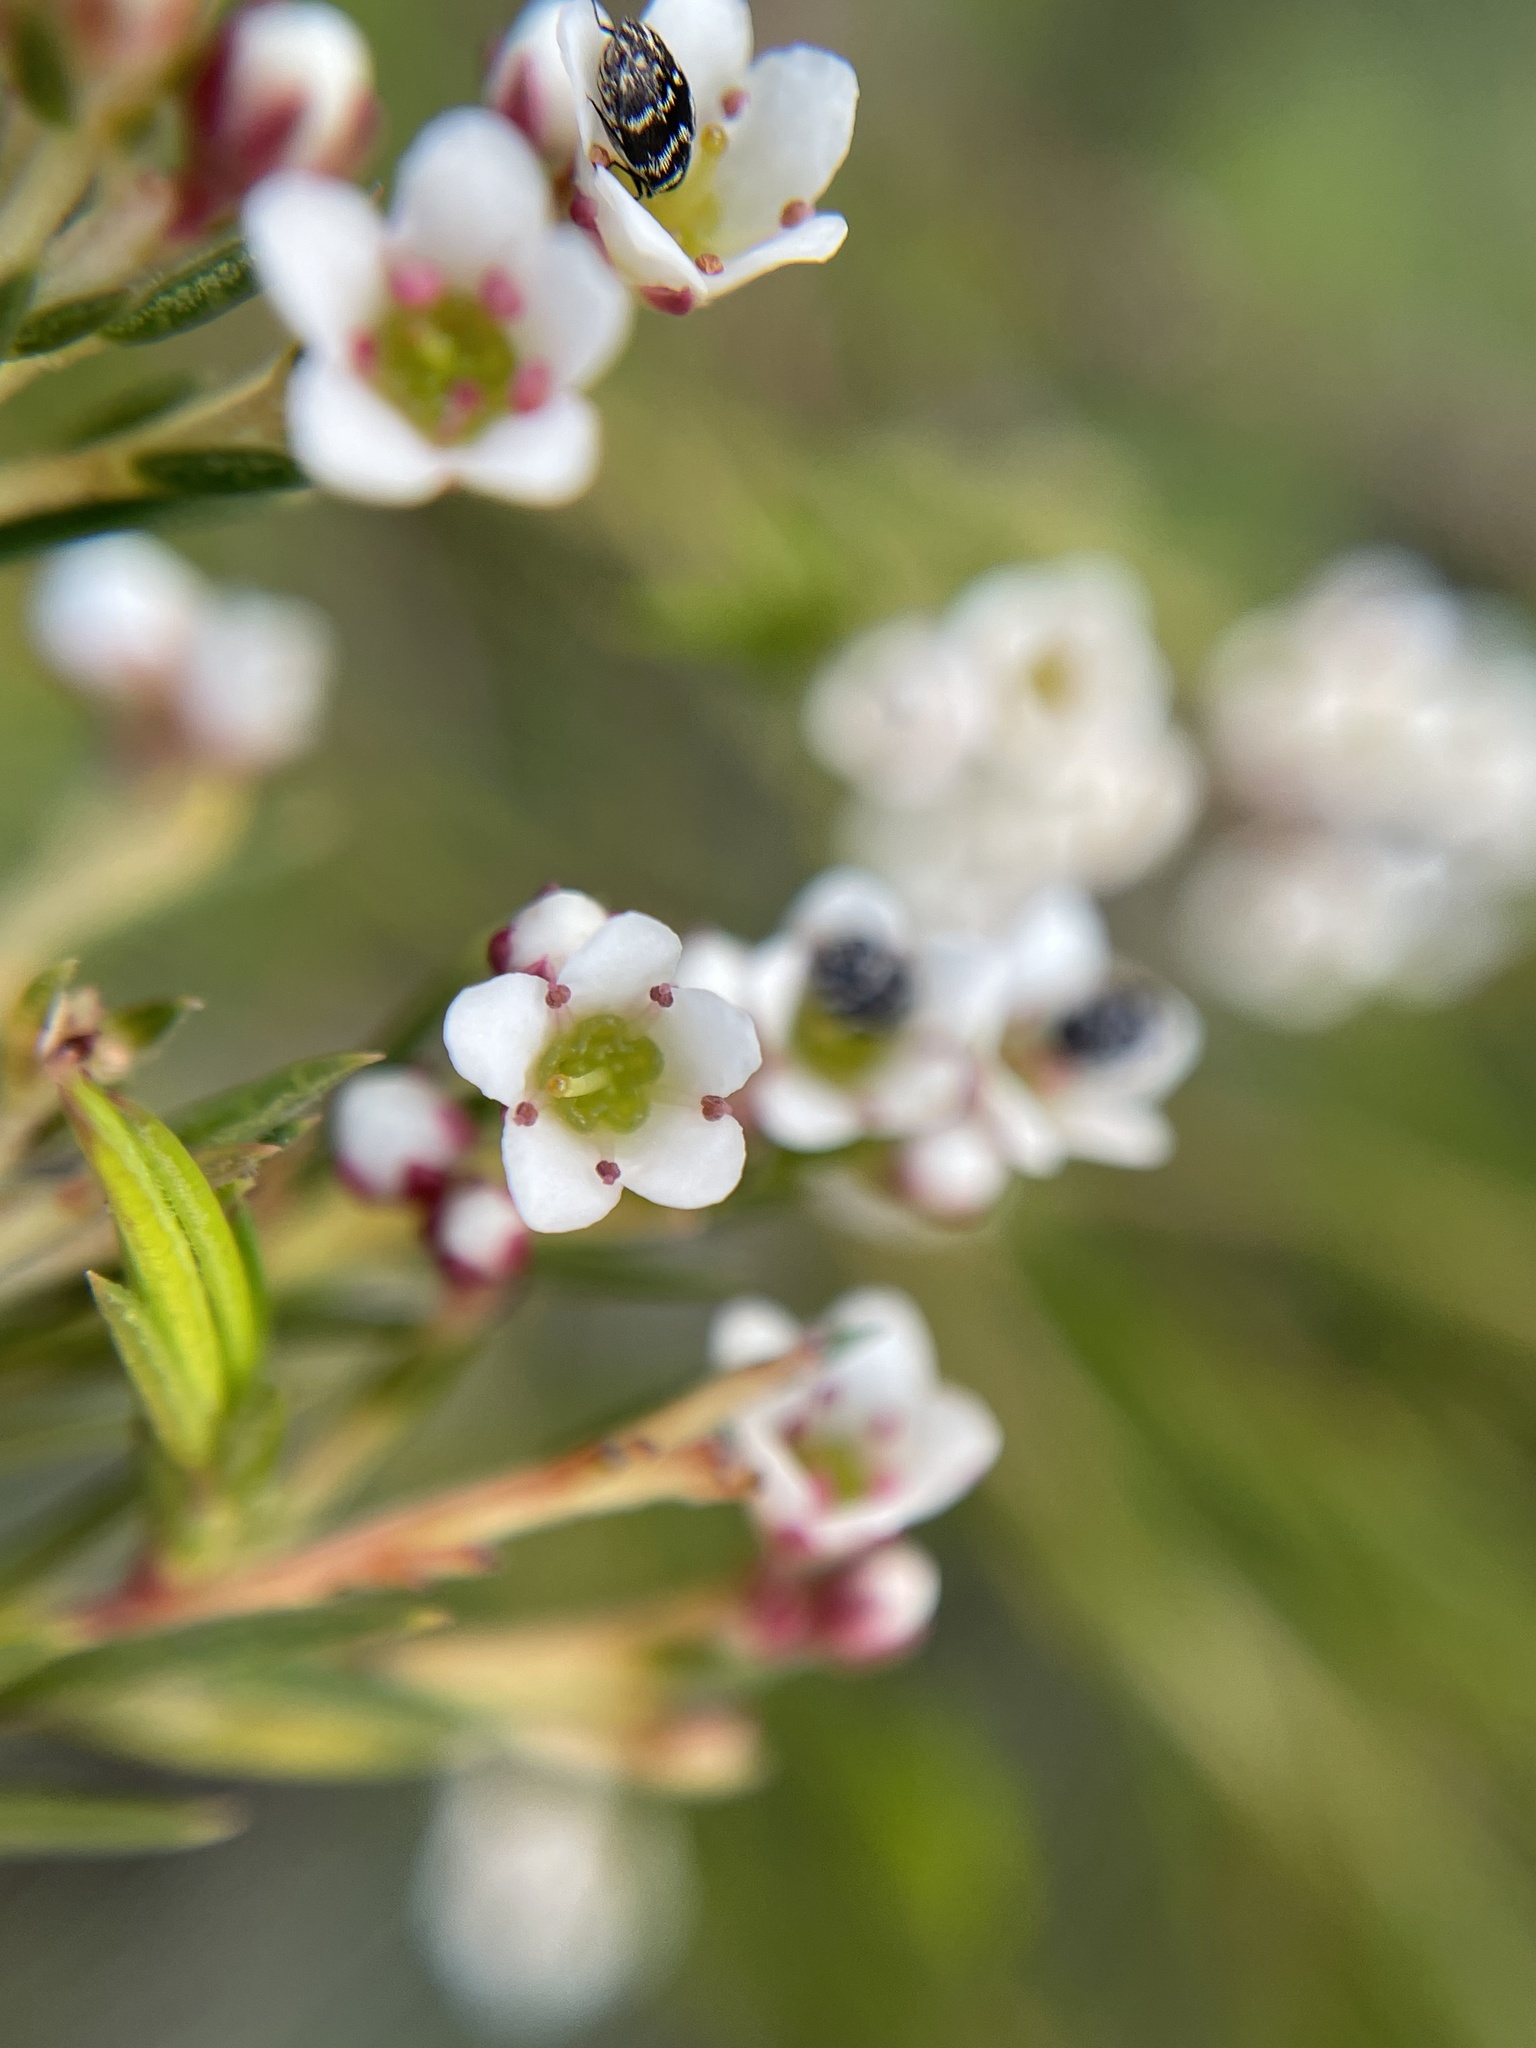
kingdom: Plantae
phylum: Tracheophyta
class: Magnoliopsida
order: Sapindales
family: Rutaceae
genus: Diosma
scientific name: Diosma hirsuta
